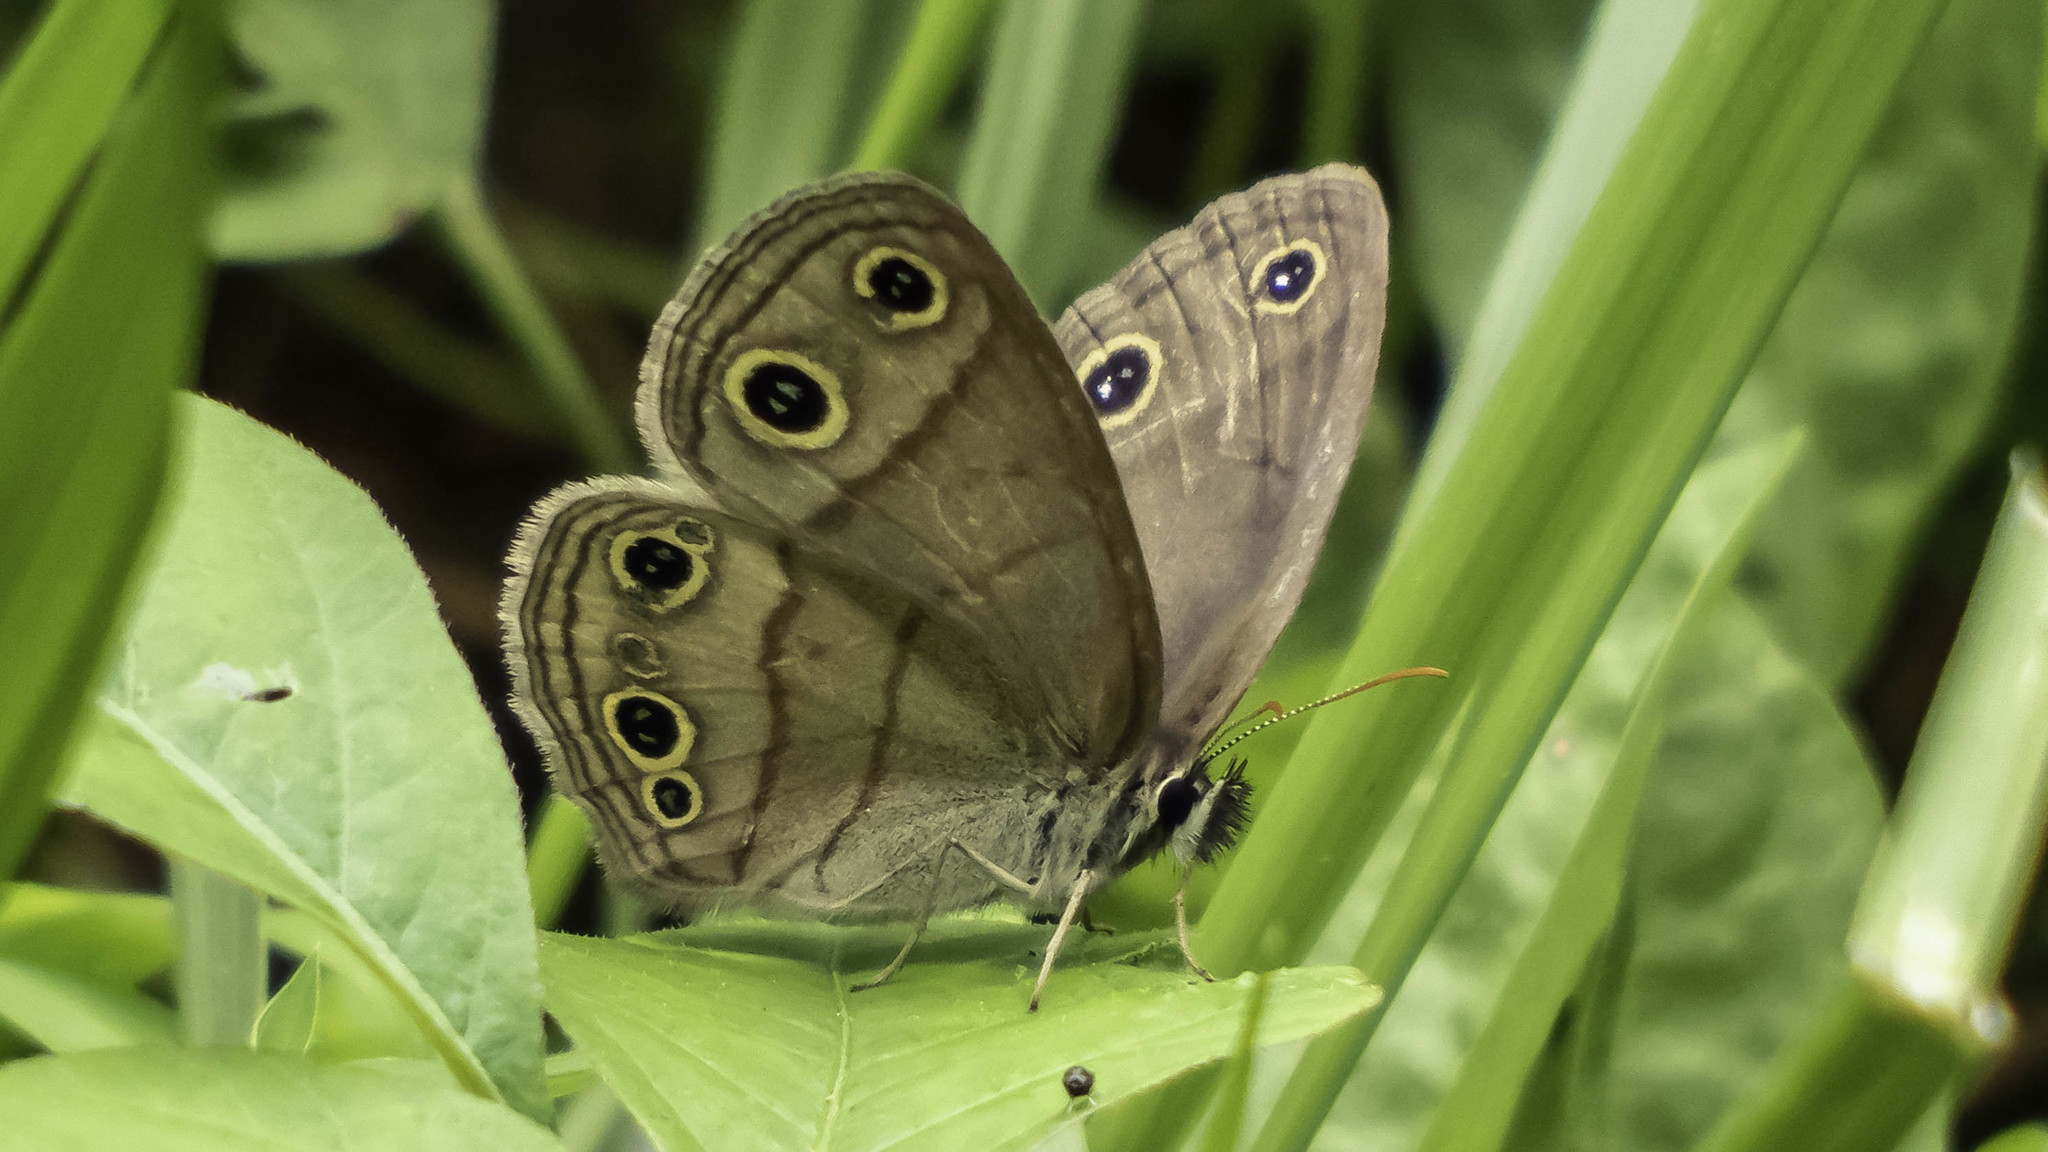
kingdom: Animalia
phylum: Arthropoda
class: Insecta
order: Lepidoptera
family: Nymphalidae
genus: Euptychia
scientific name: Euptychia cymela
